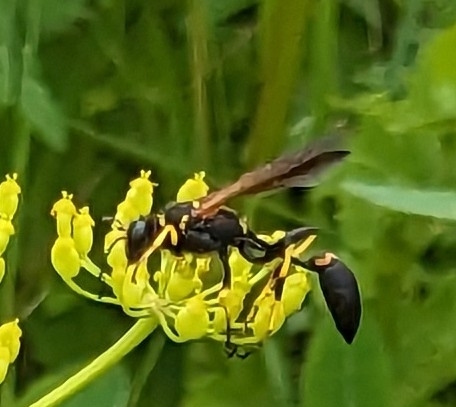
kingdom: Animalia
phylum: Arthropoda
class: Insecta
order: Hymenoptera
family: Sphecidae
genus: Sceliphron
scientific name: Sceliphron caementarium
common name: Mud dauber
